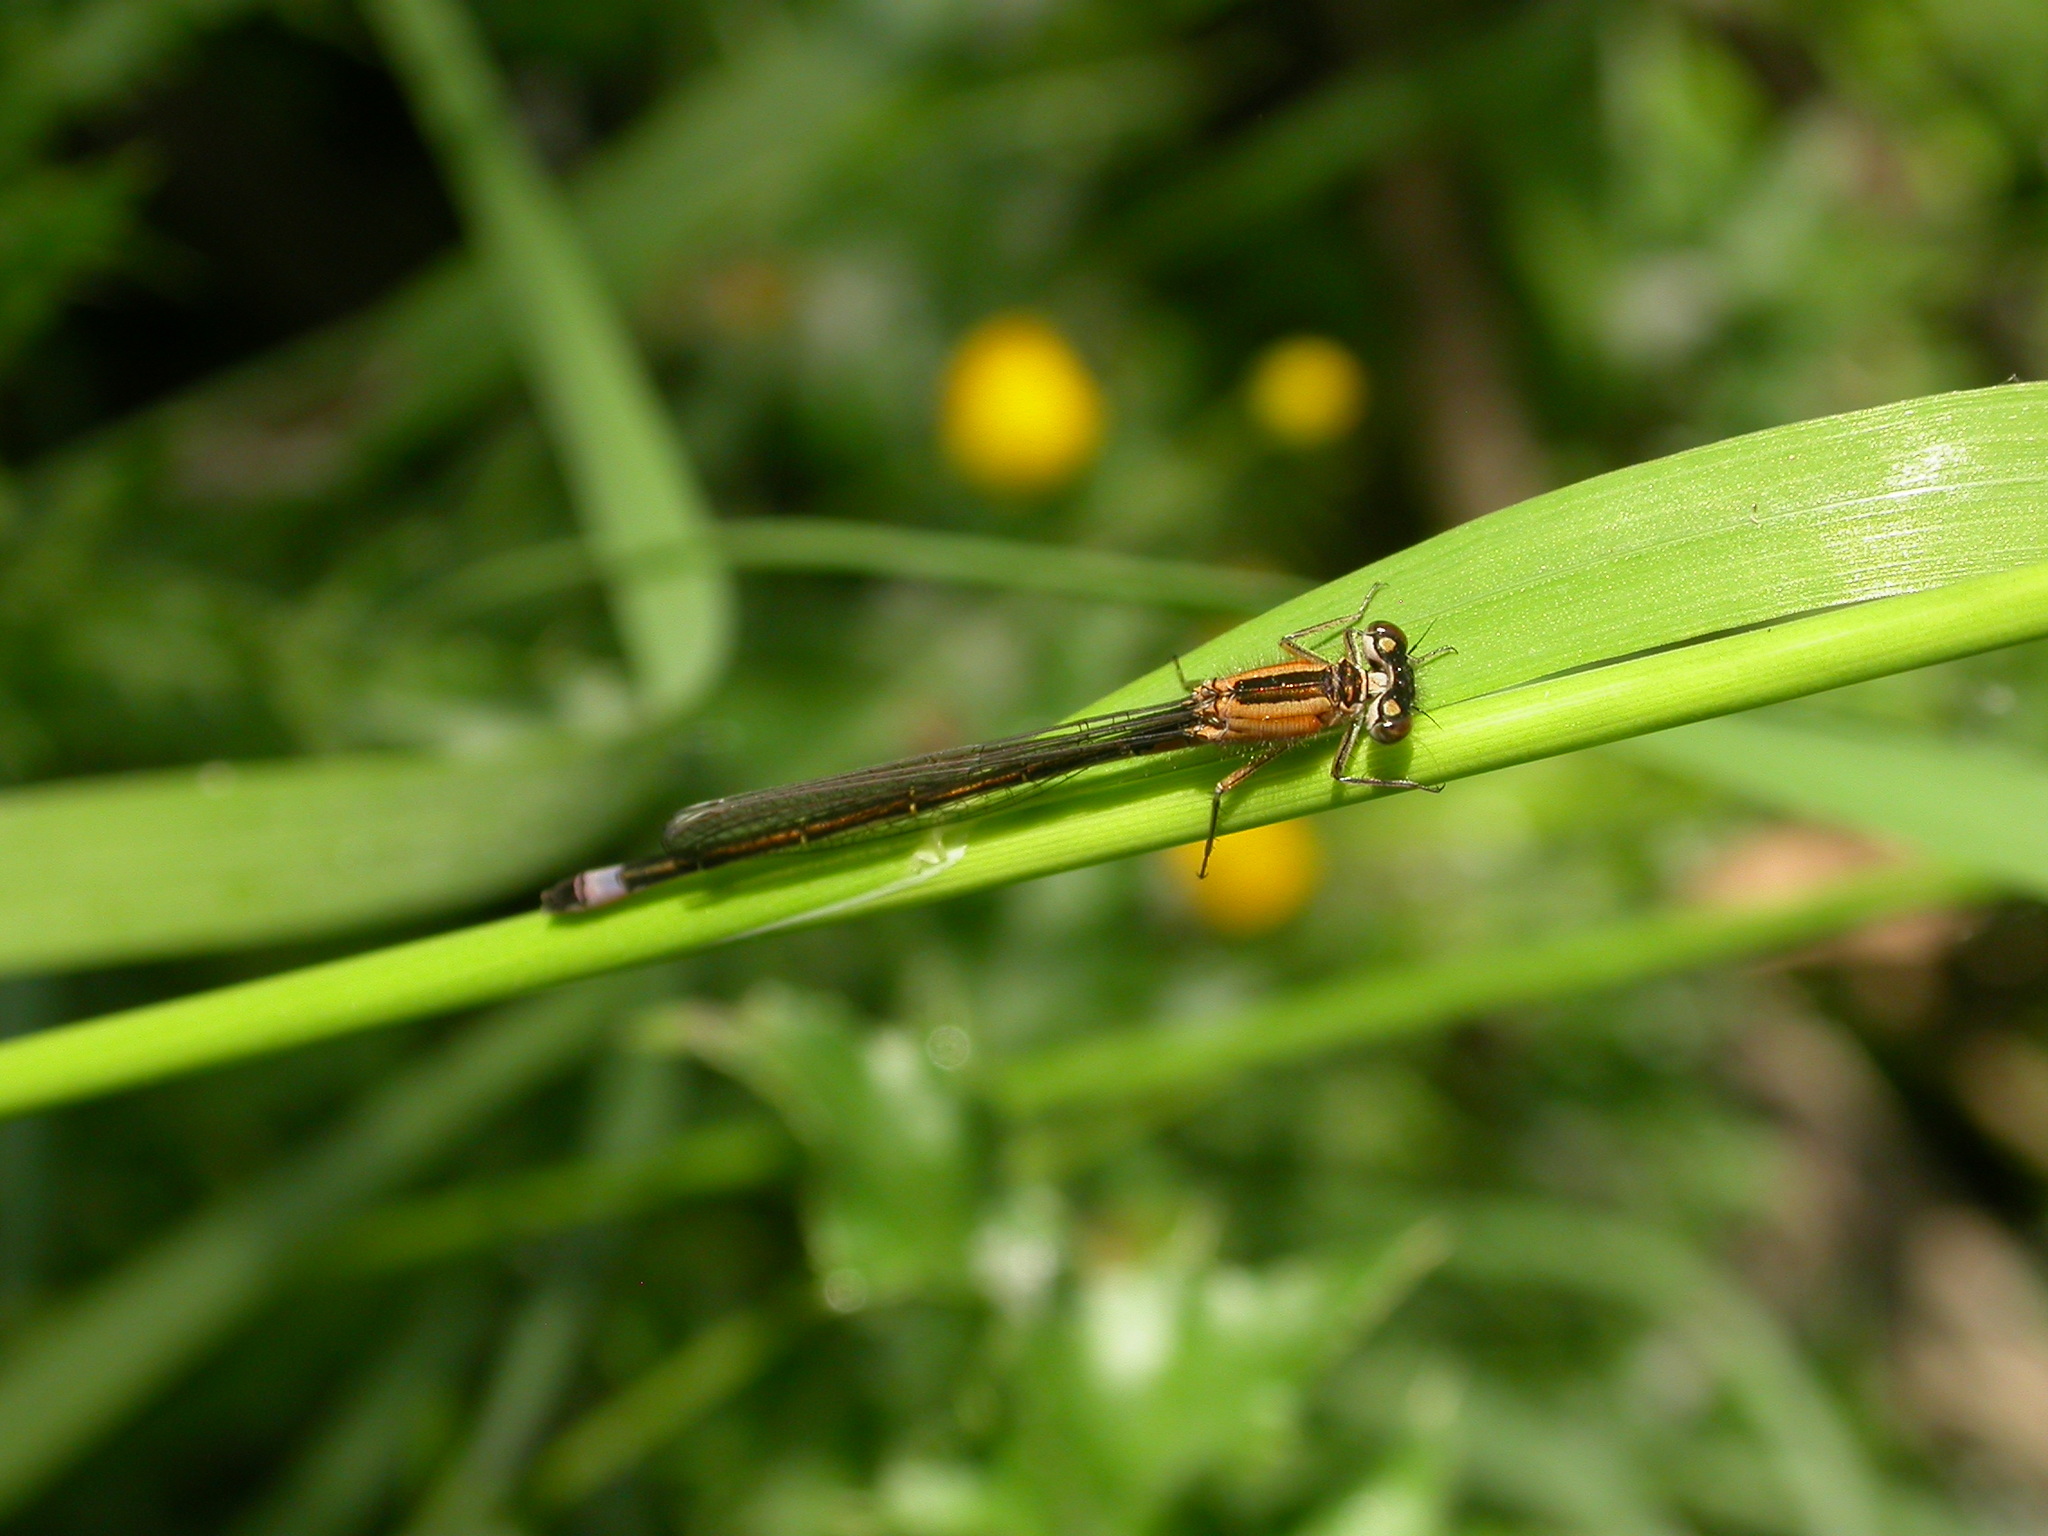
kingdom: Animalia
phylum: Arthropoda
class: Insecta
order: Odonata
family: Coenagrionidae
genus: Ischnura
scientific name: Ischnura elegans
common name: Blue-tailed damselfly
